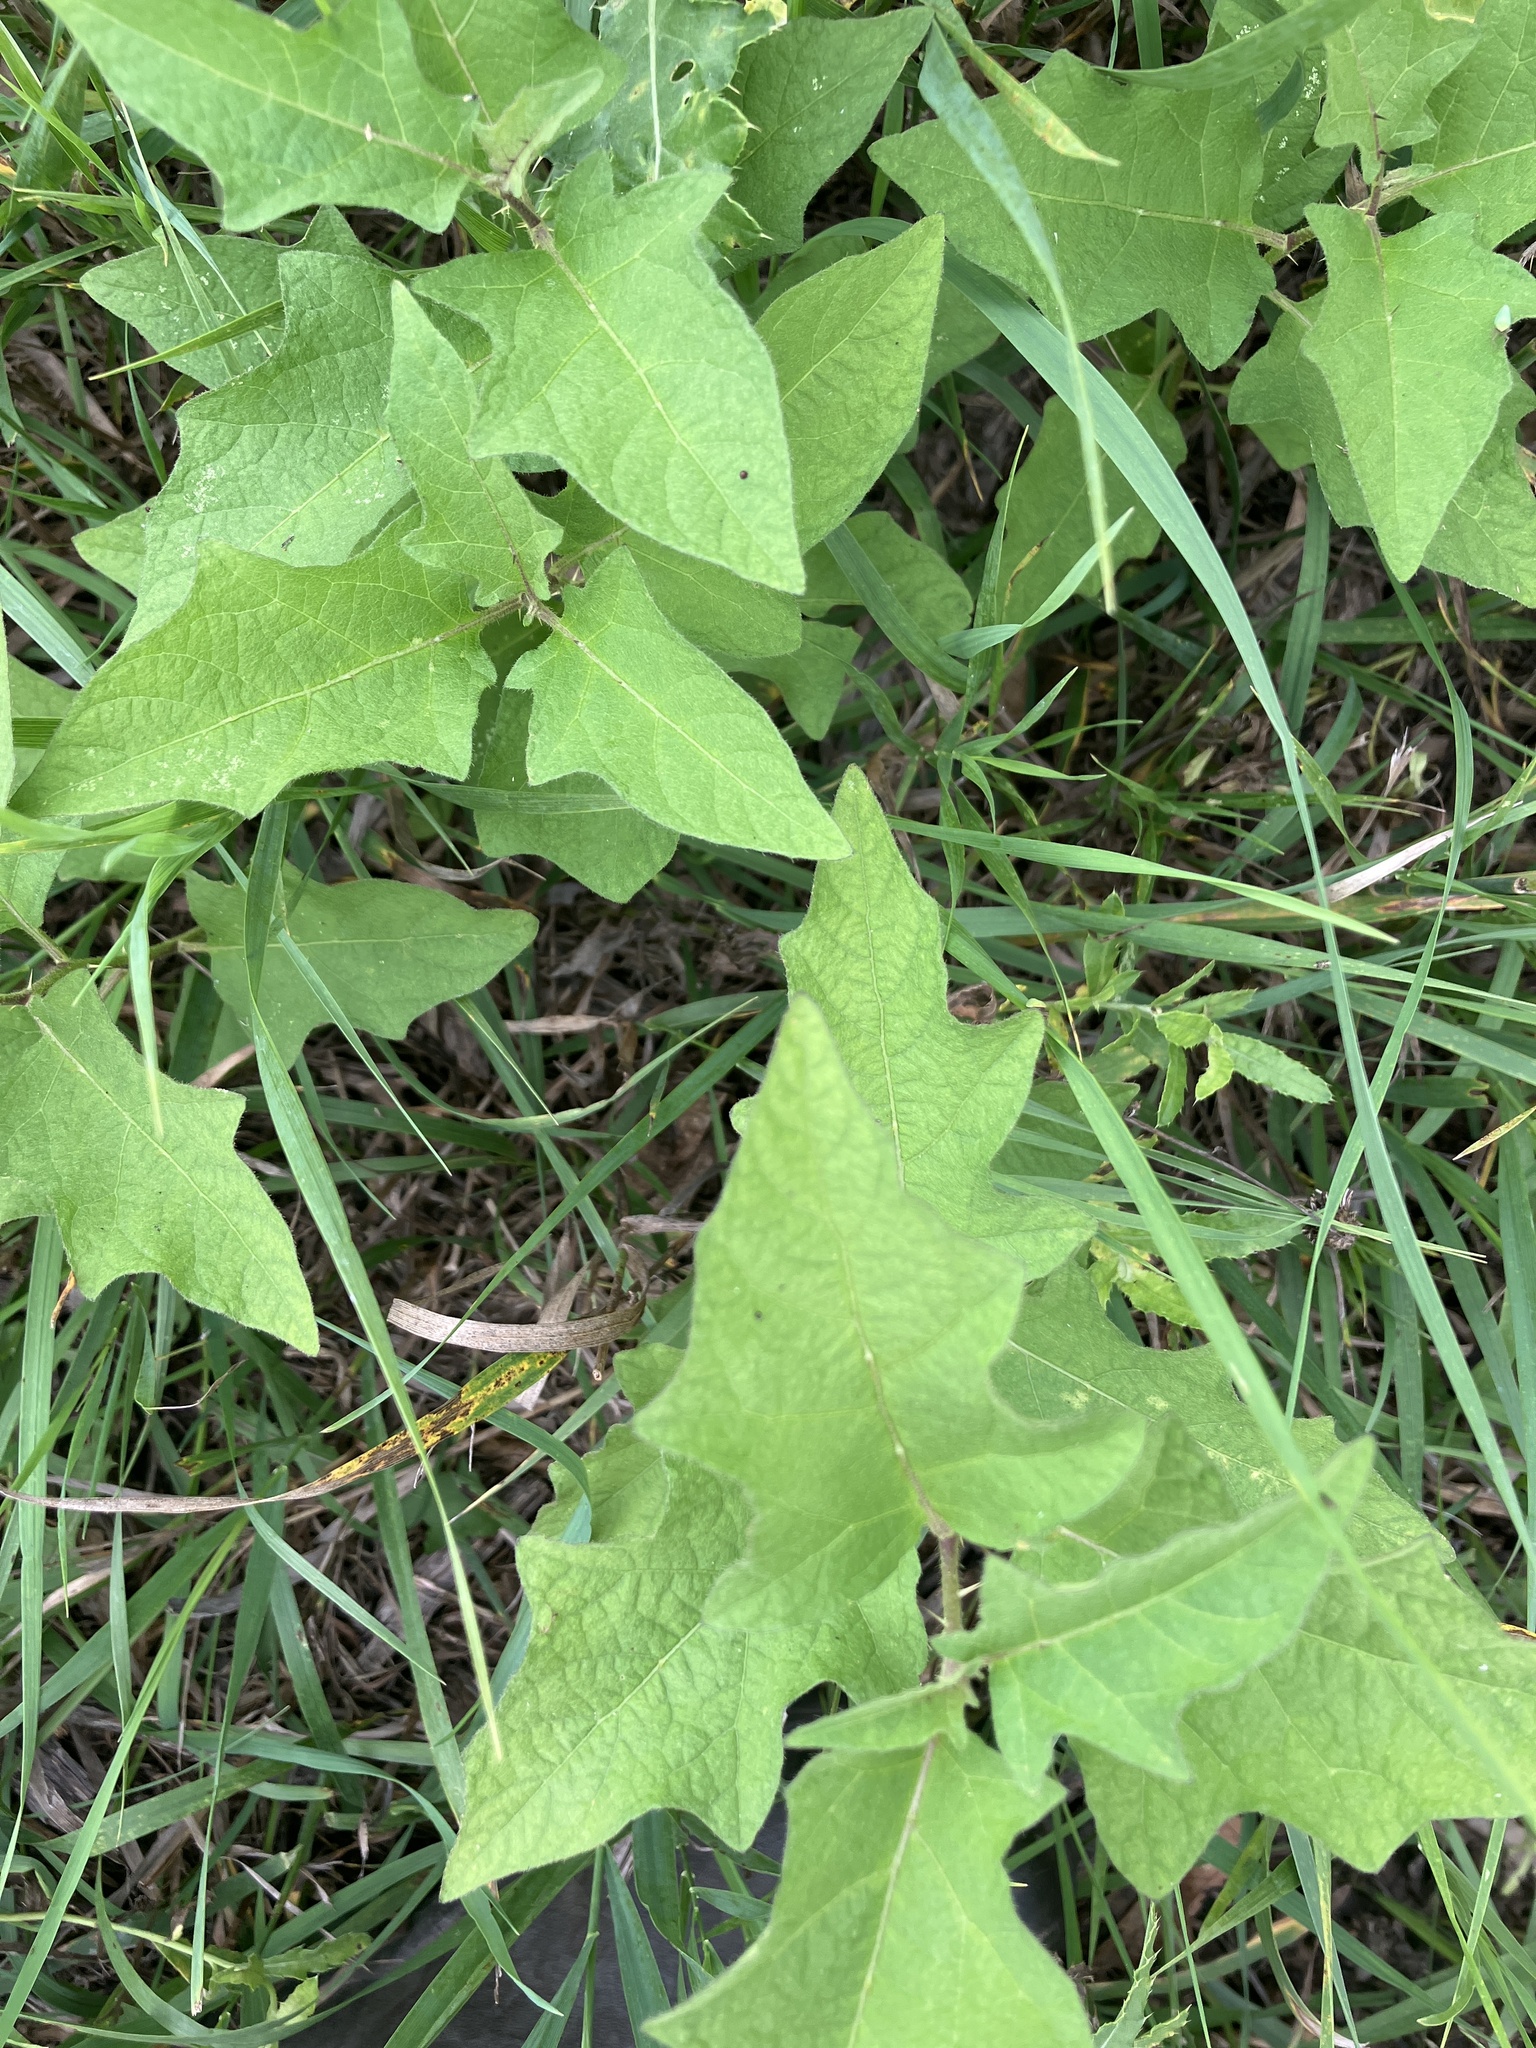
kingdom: Plantae
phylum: Tracheophyta
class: Magnoliopsida
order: Solanales
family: Solanaceae
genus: Solanum
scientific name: Solanum carolinense
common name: Horse-nettle
